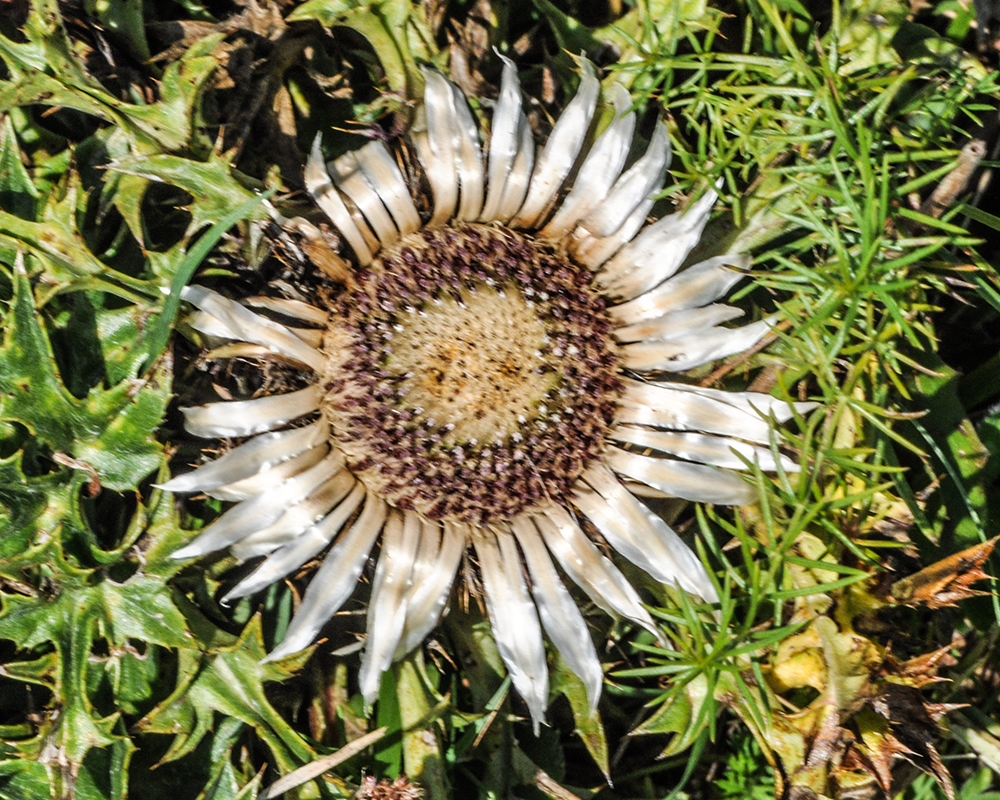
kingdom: Plantae
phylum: Tracheophyta
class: Magnoliopsida
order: Asterales
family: Asteraceae
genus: Carlina
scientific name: Carlina acaulis
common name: Stemless carline thistle
